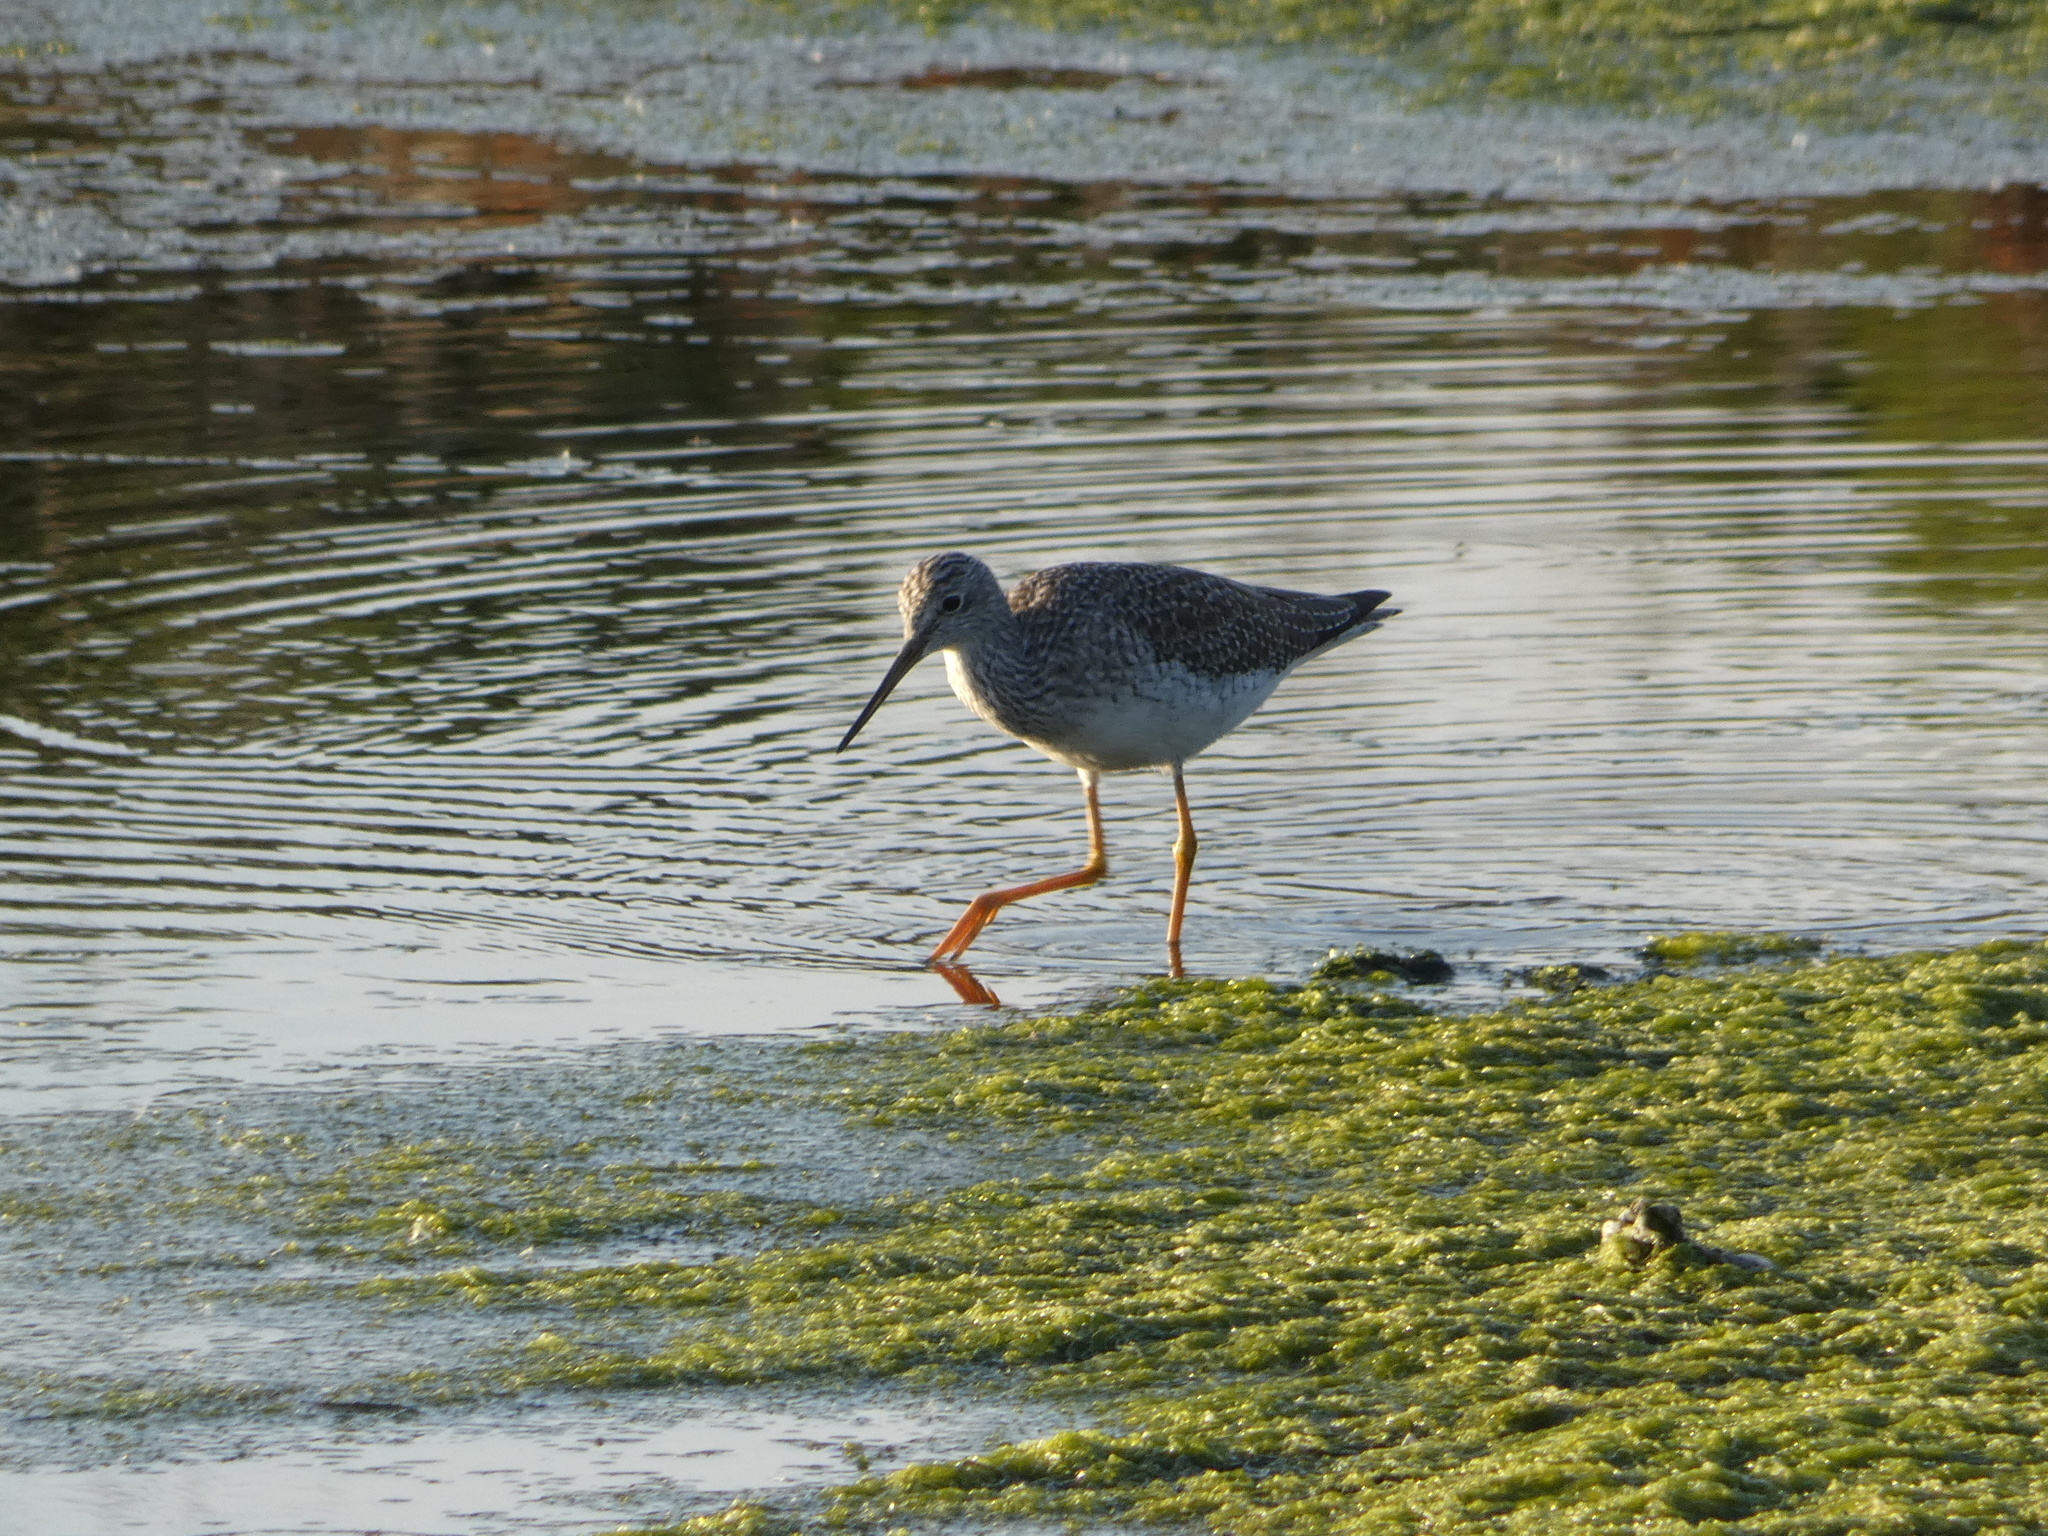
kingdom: Animalia
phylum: Chordata
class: Aves
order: Charadriiformes
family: Scolopacidae
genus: Tringa
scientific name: Tringa melanoleuca
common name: Greater yellowlegs
